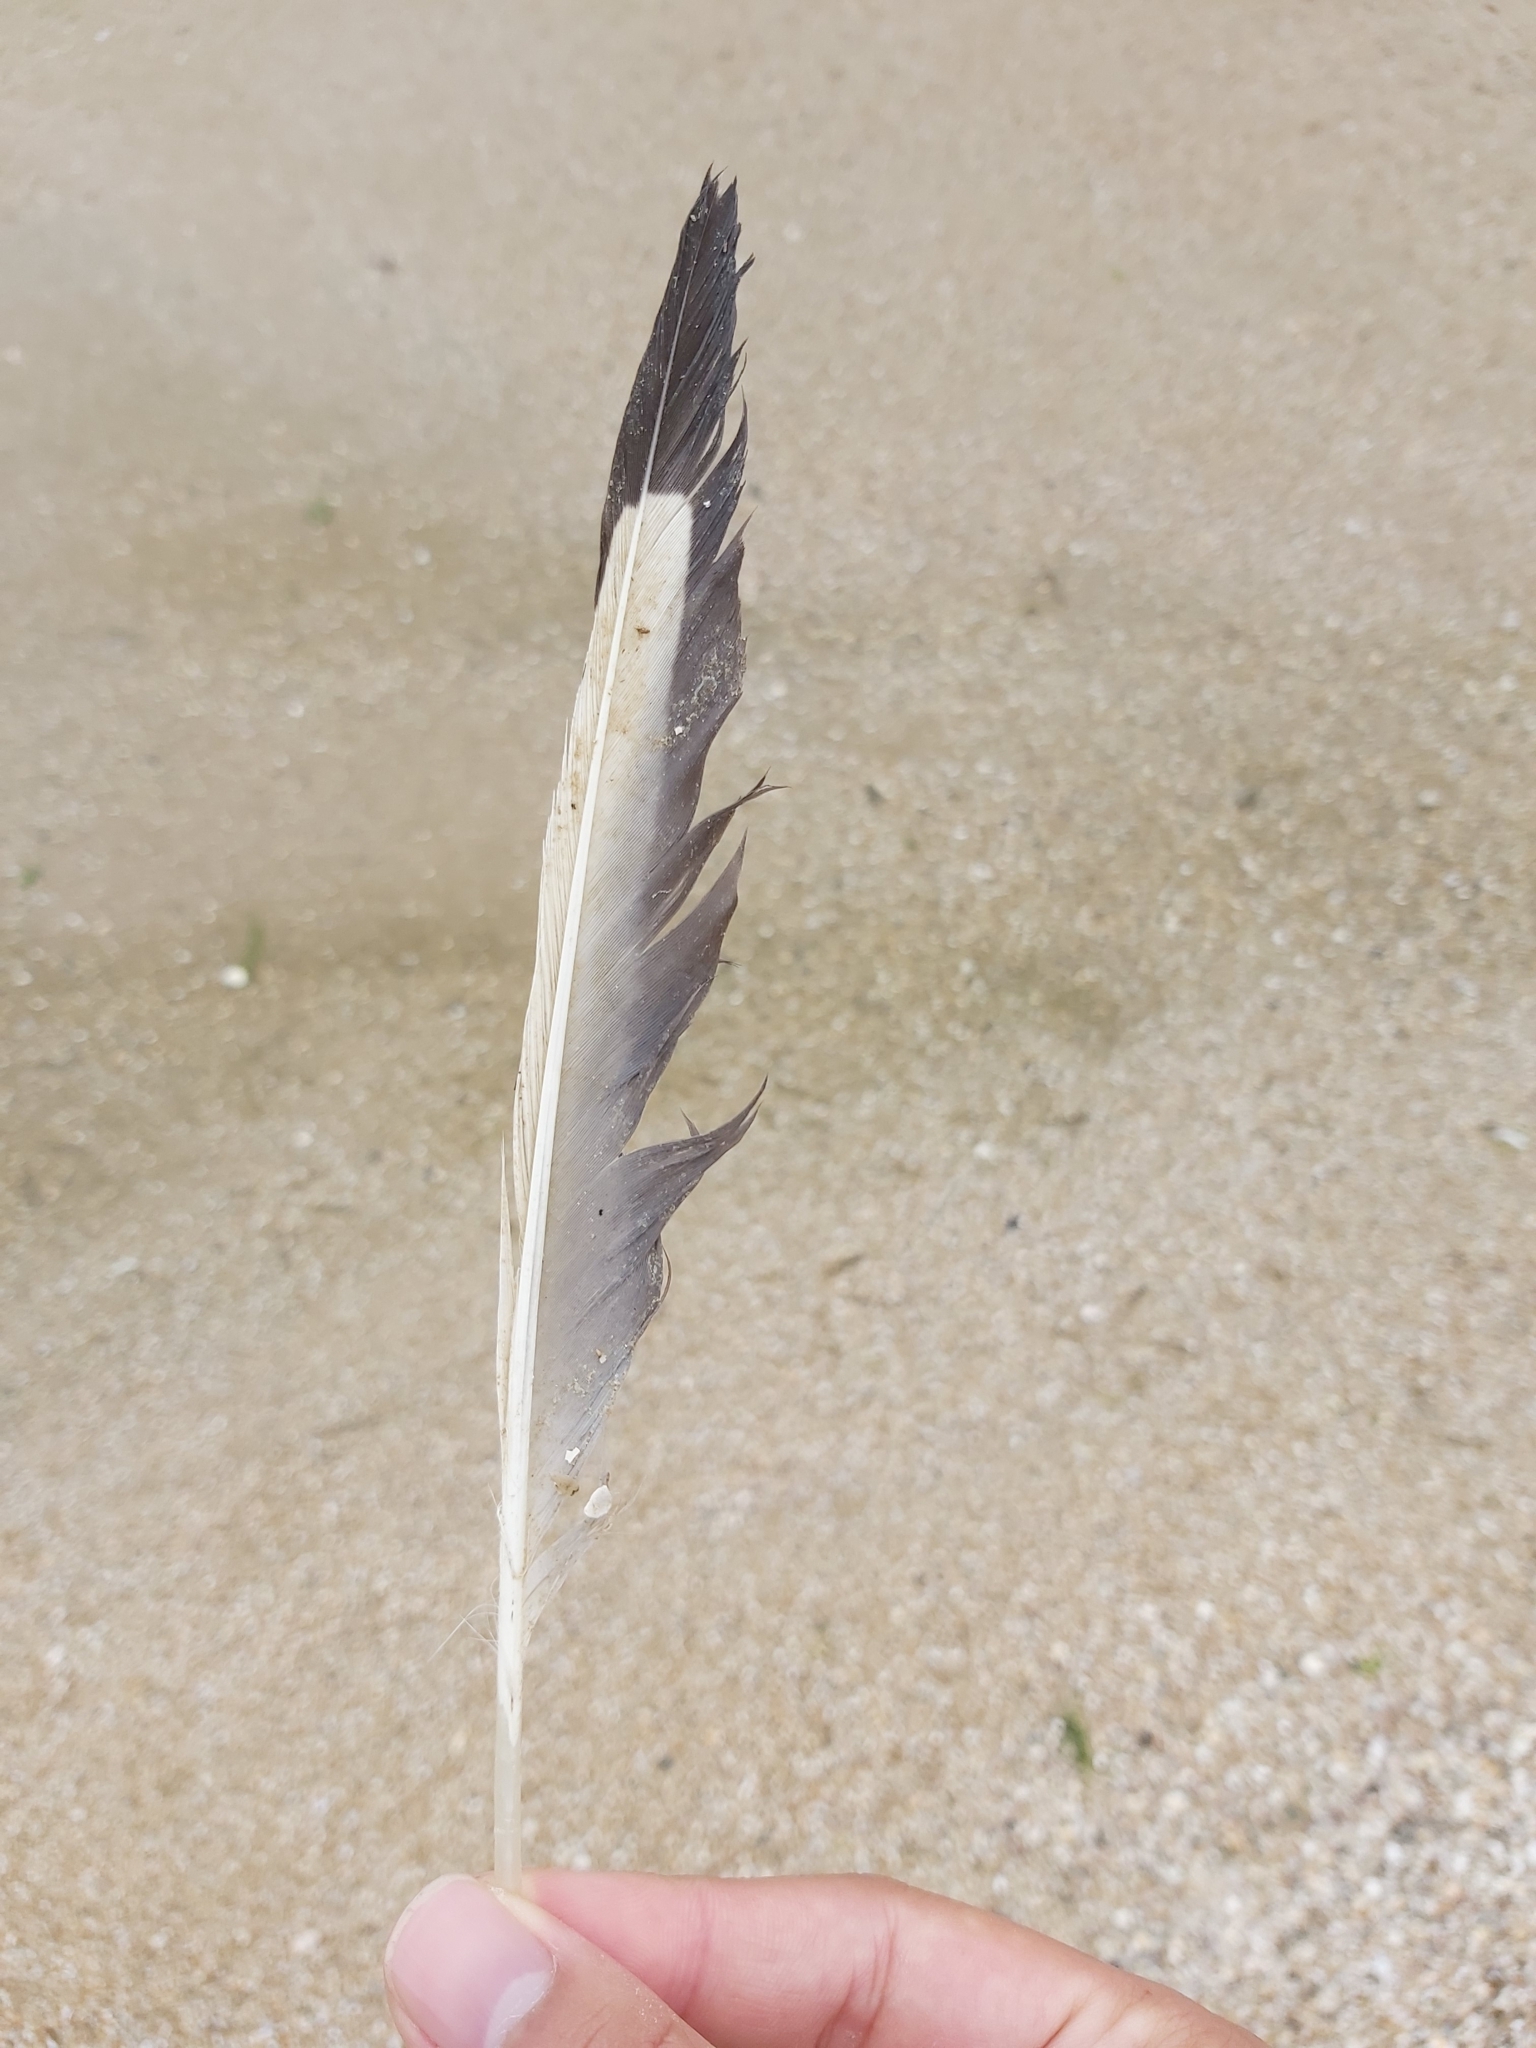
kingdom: Animalia
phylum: Chordata
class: Aves
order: Charadriiformes
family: Laridae
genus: Chroicocephalus
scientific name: Chroicocephalus novaehollandiae
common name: Silver gull
